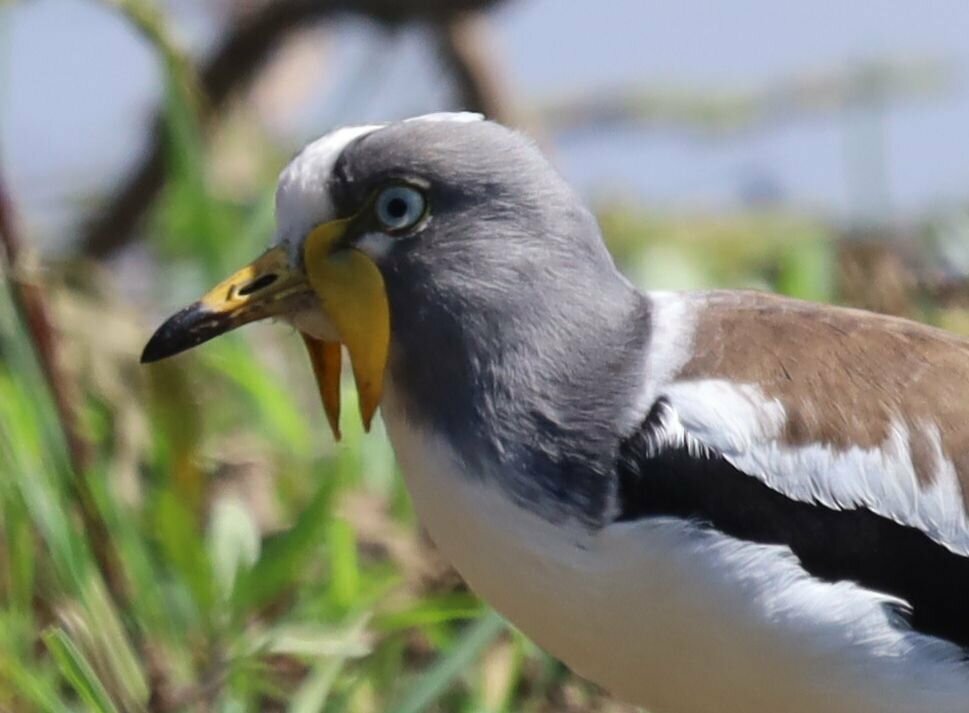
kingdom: Animalia
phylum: Chordata
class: Aves
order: Charadriiformes
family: Charadriidae
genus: Vanellus
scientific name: Vanellus albiceps
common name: White-crowned lapwing
